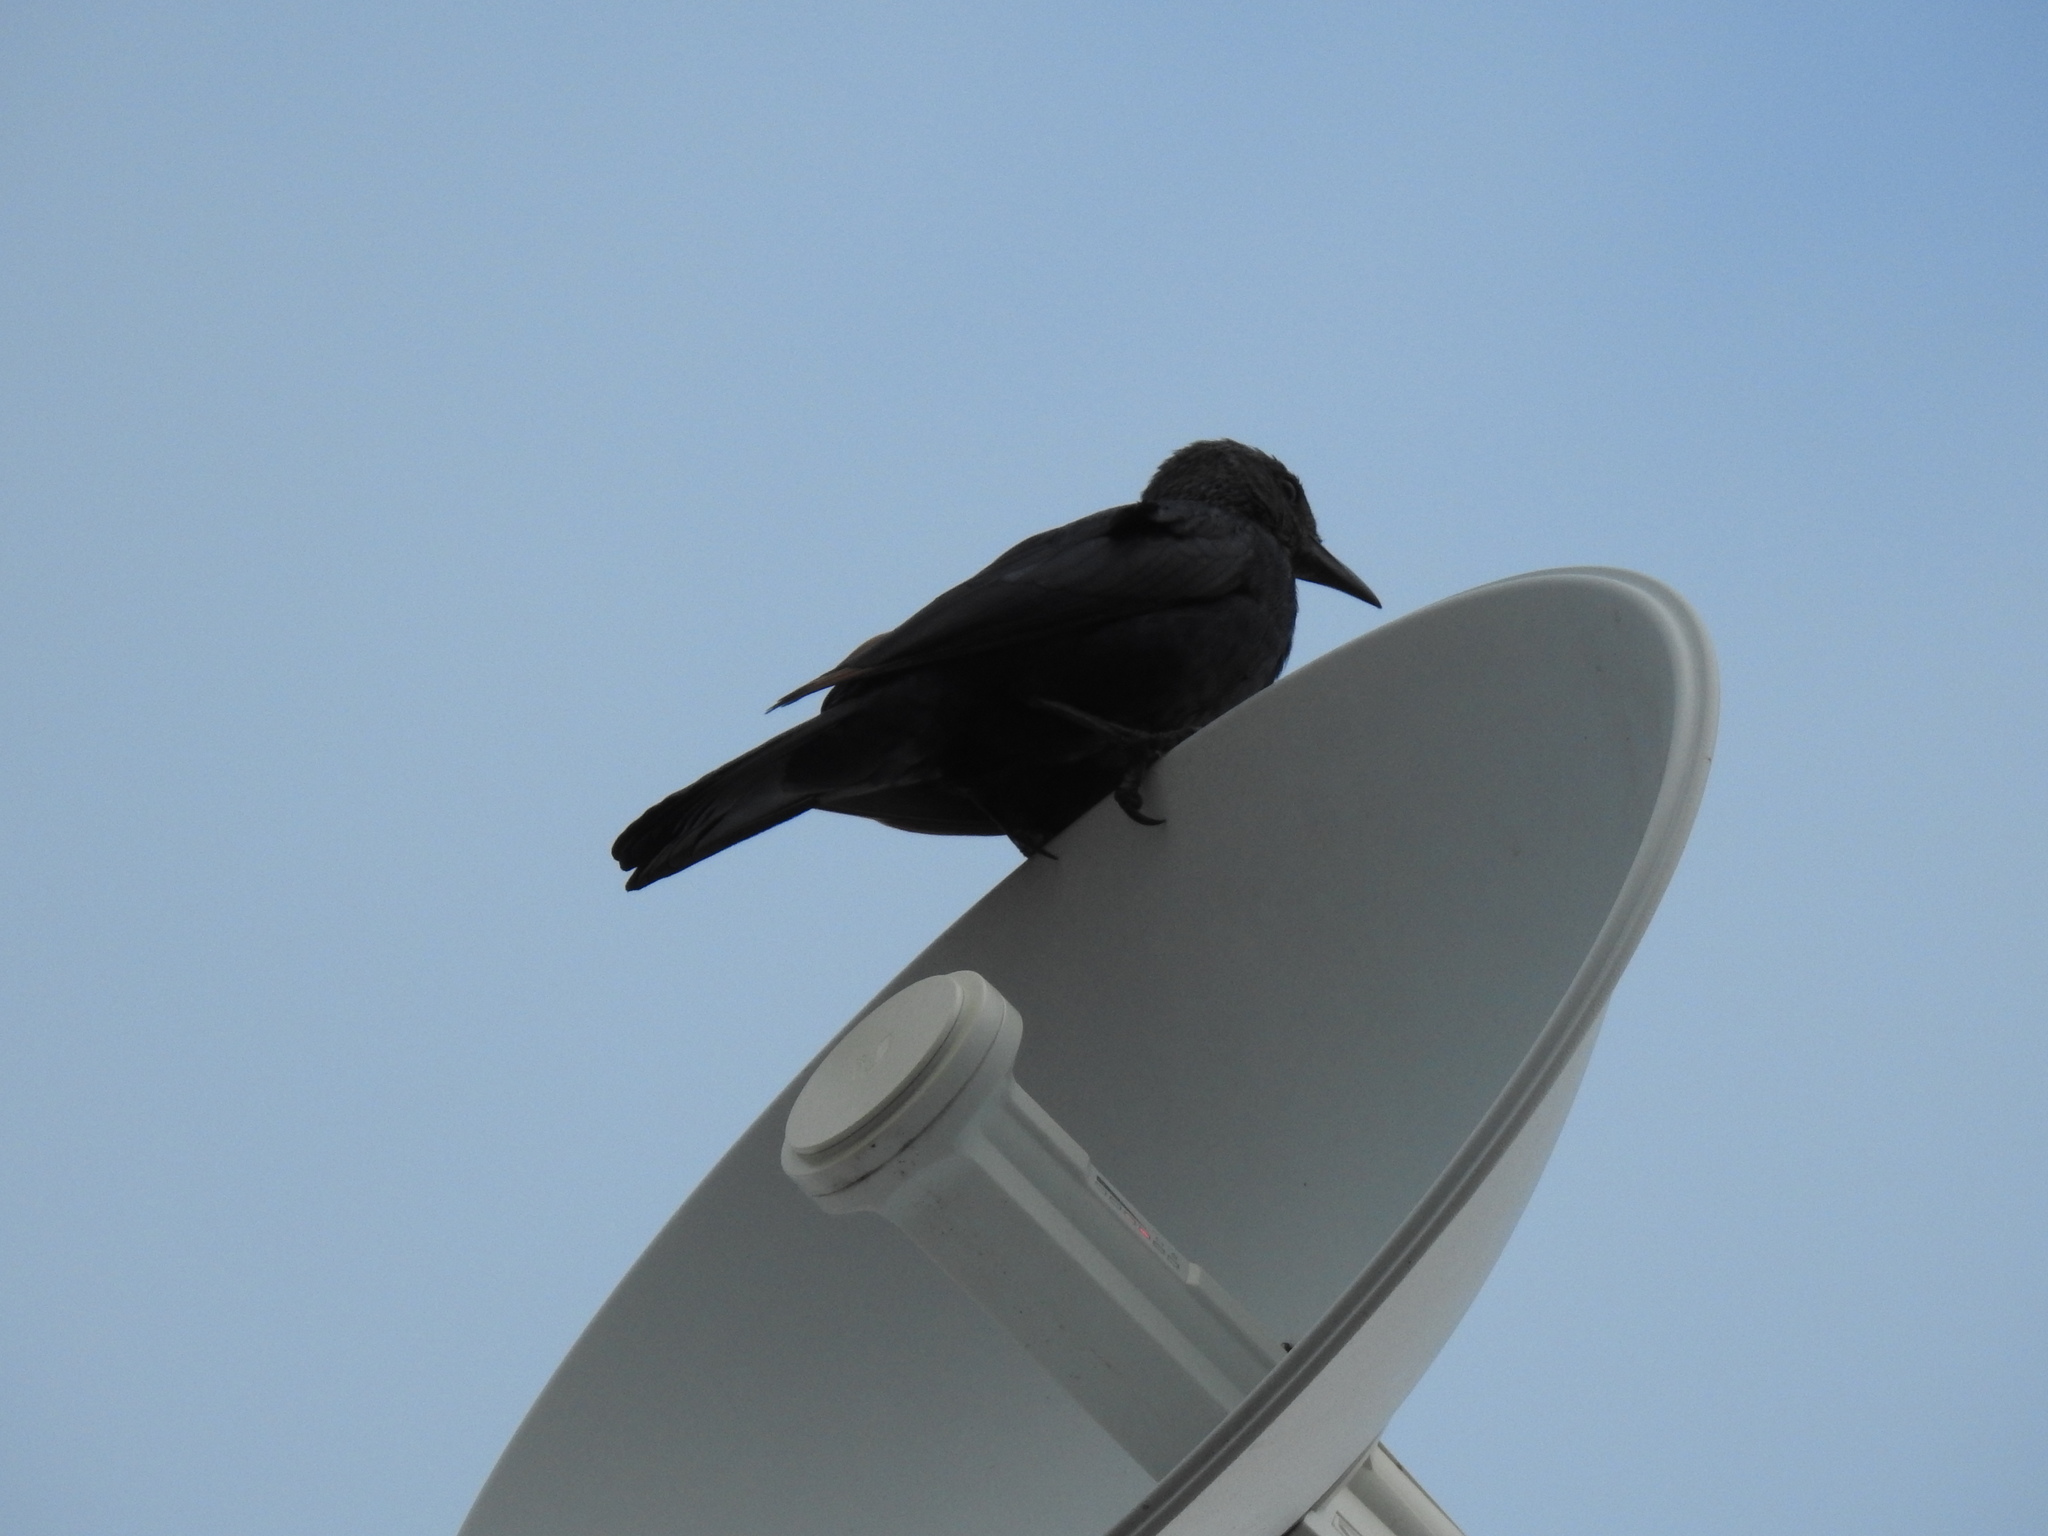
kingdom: Animalia
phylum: Chordata
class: Aves
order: Passeriformes
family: Sturnidae
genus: Onychognathus
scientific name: Onychognathus morio
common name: Red-winged starling
